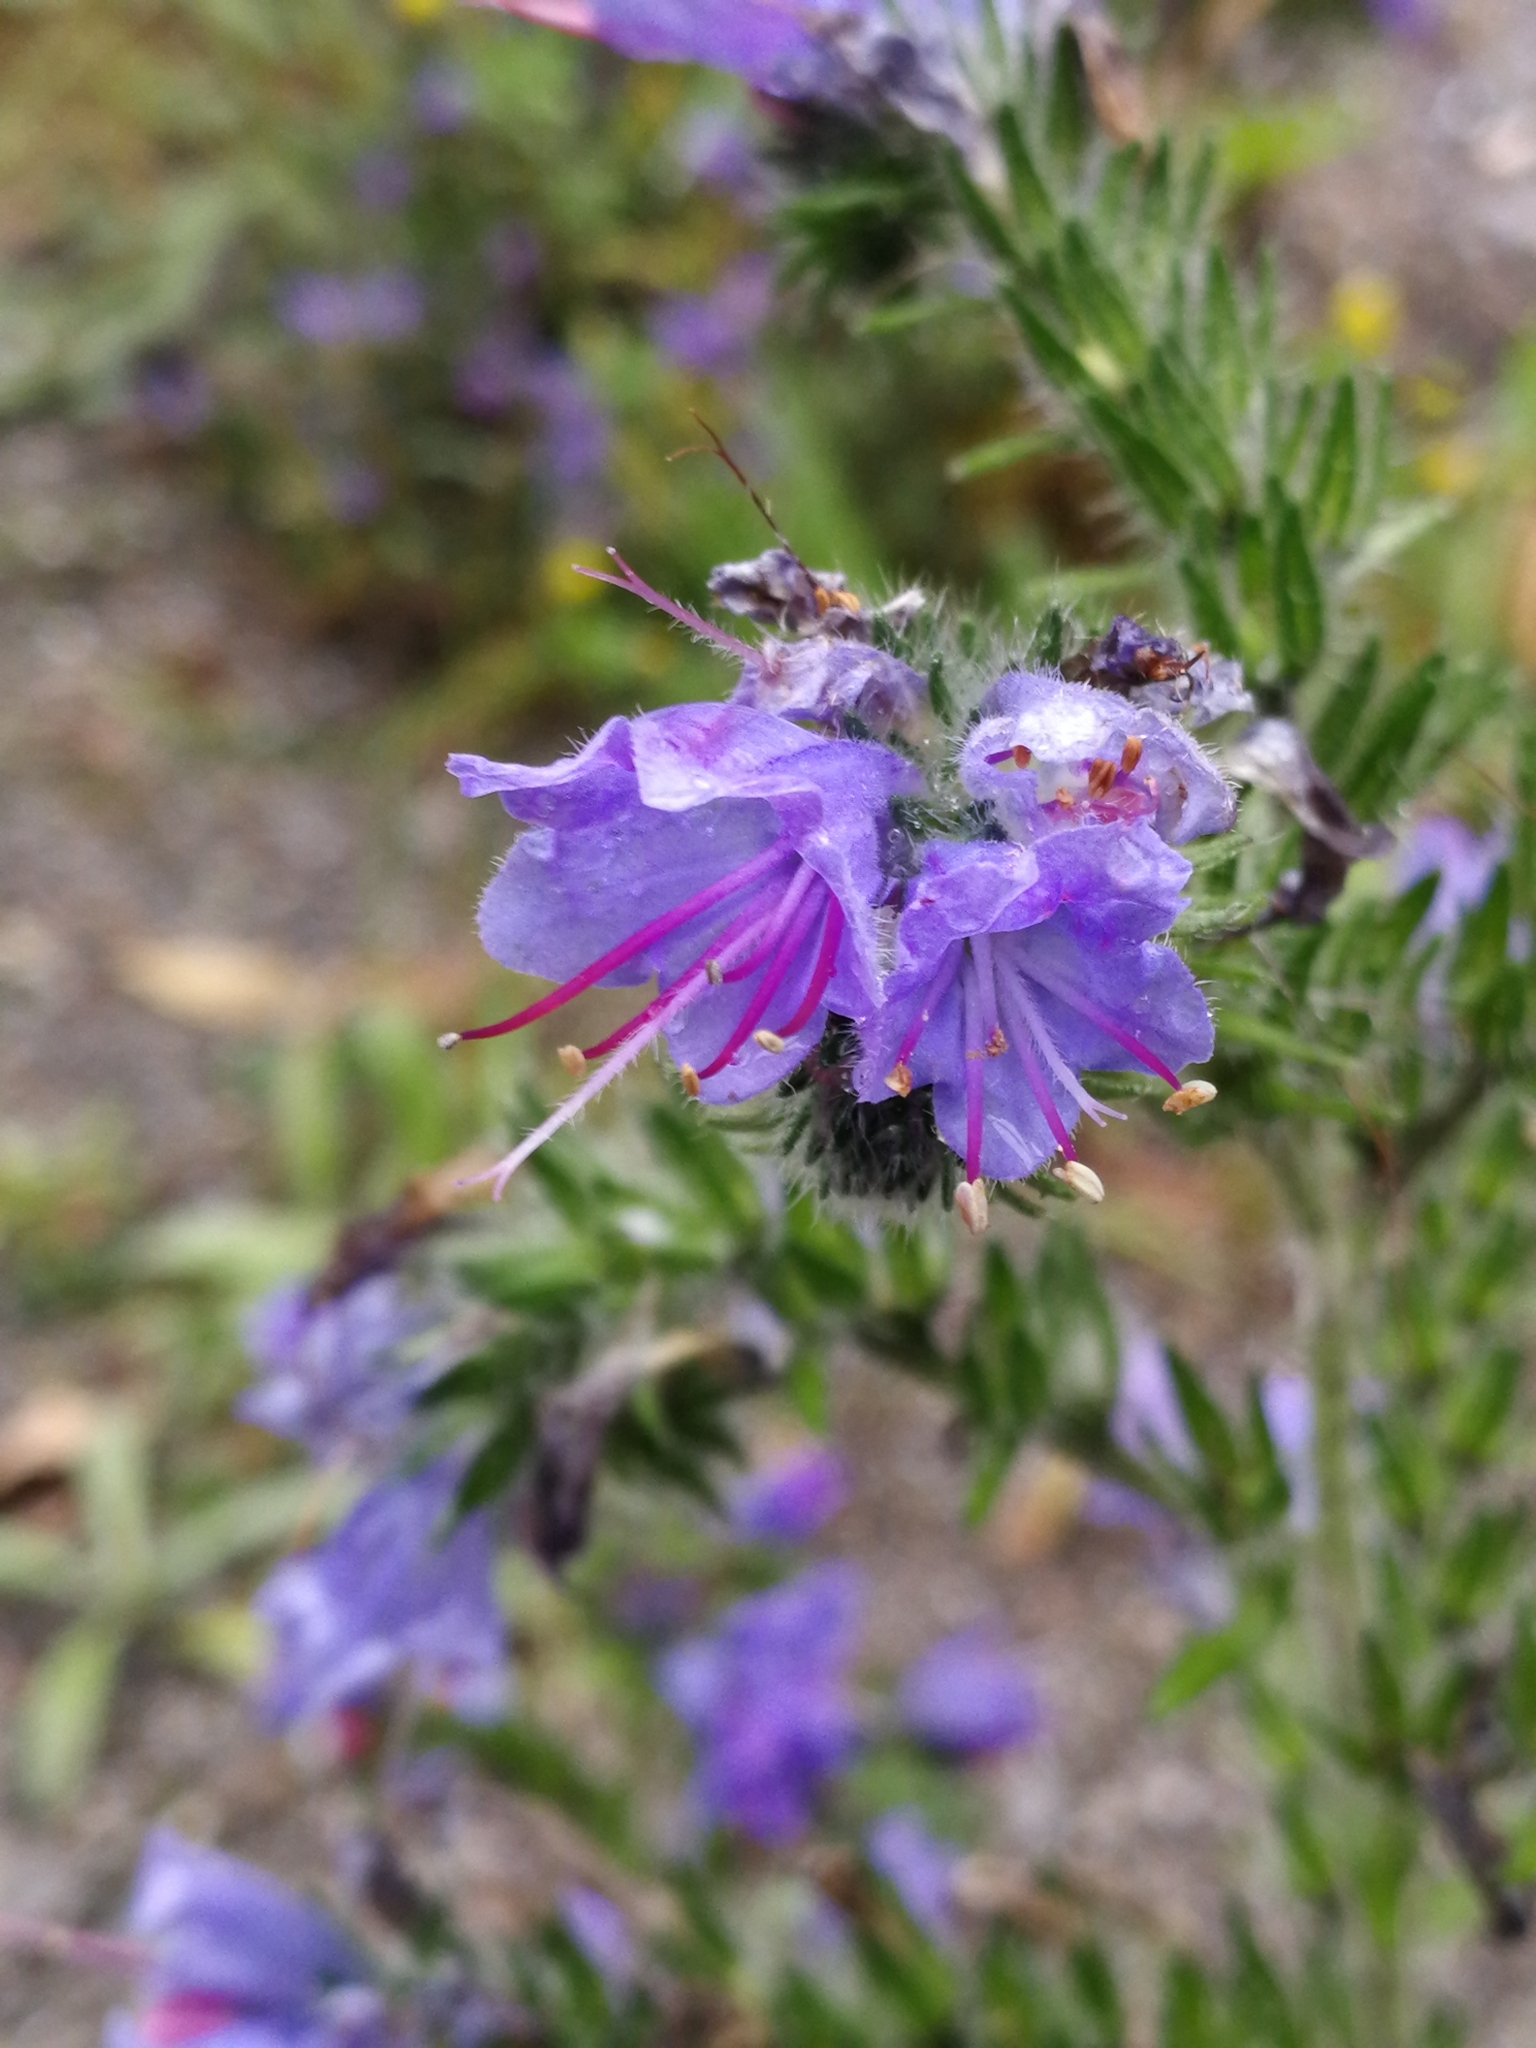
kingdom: Plantae
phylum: Tracheophyta
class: Magnoliopsida
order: Boraginales
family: Boraginaceae
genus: Echium
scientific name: Echium vulgare
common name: Common viper's bugloss
